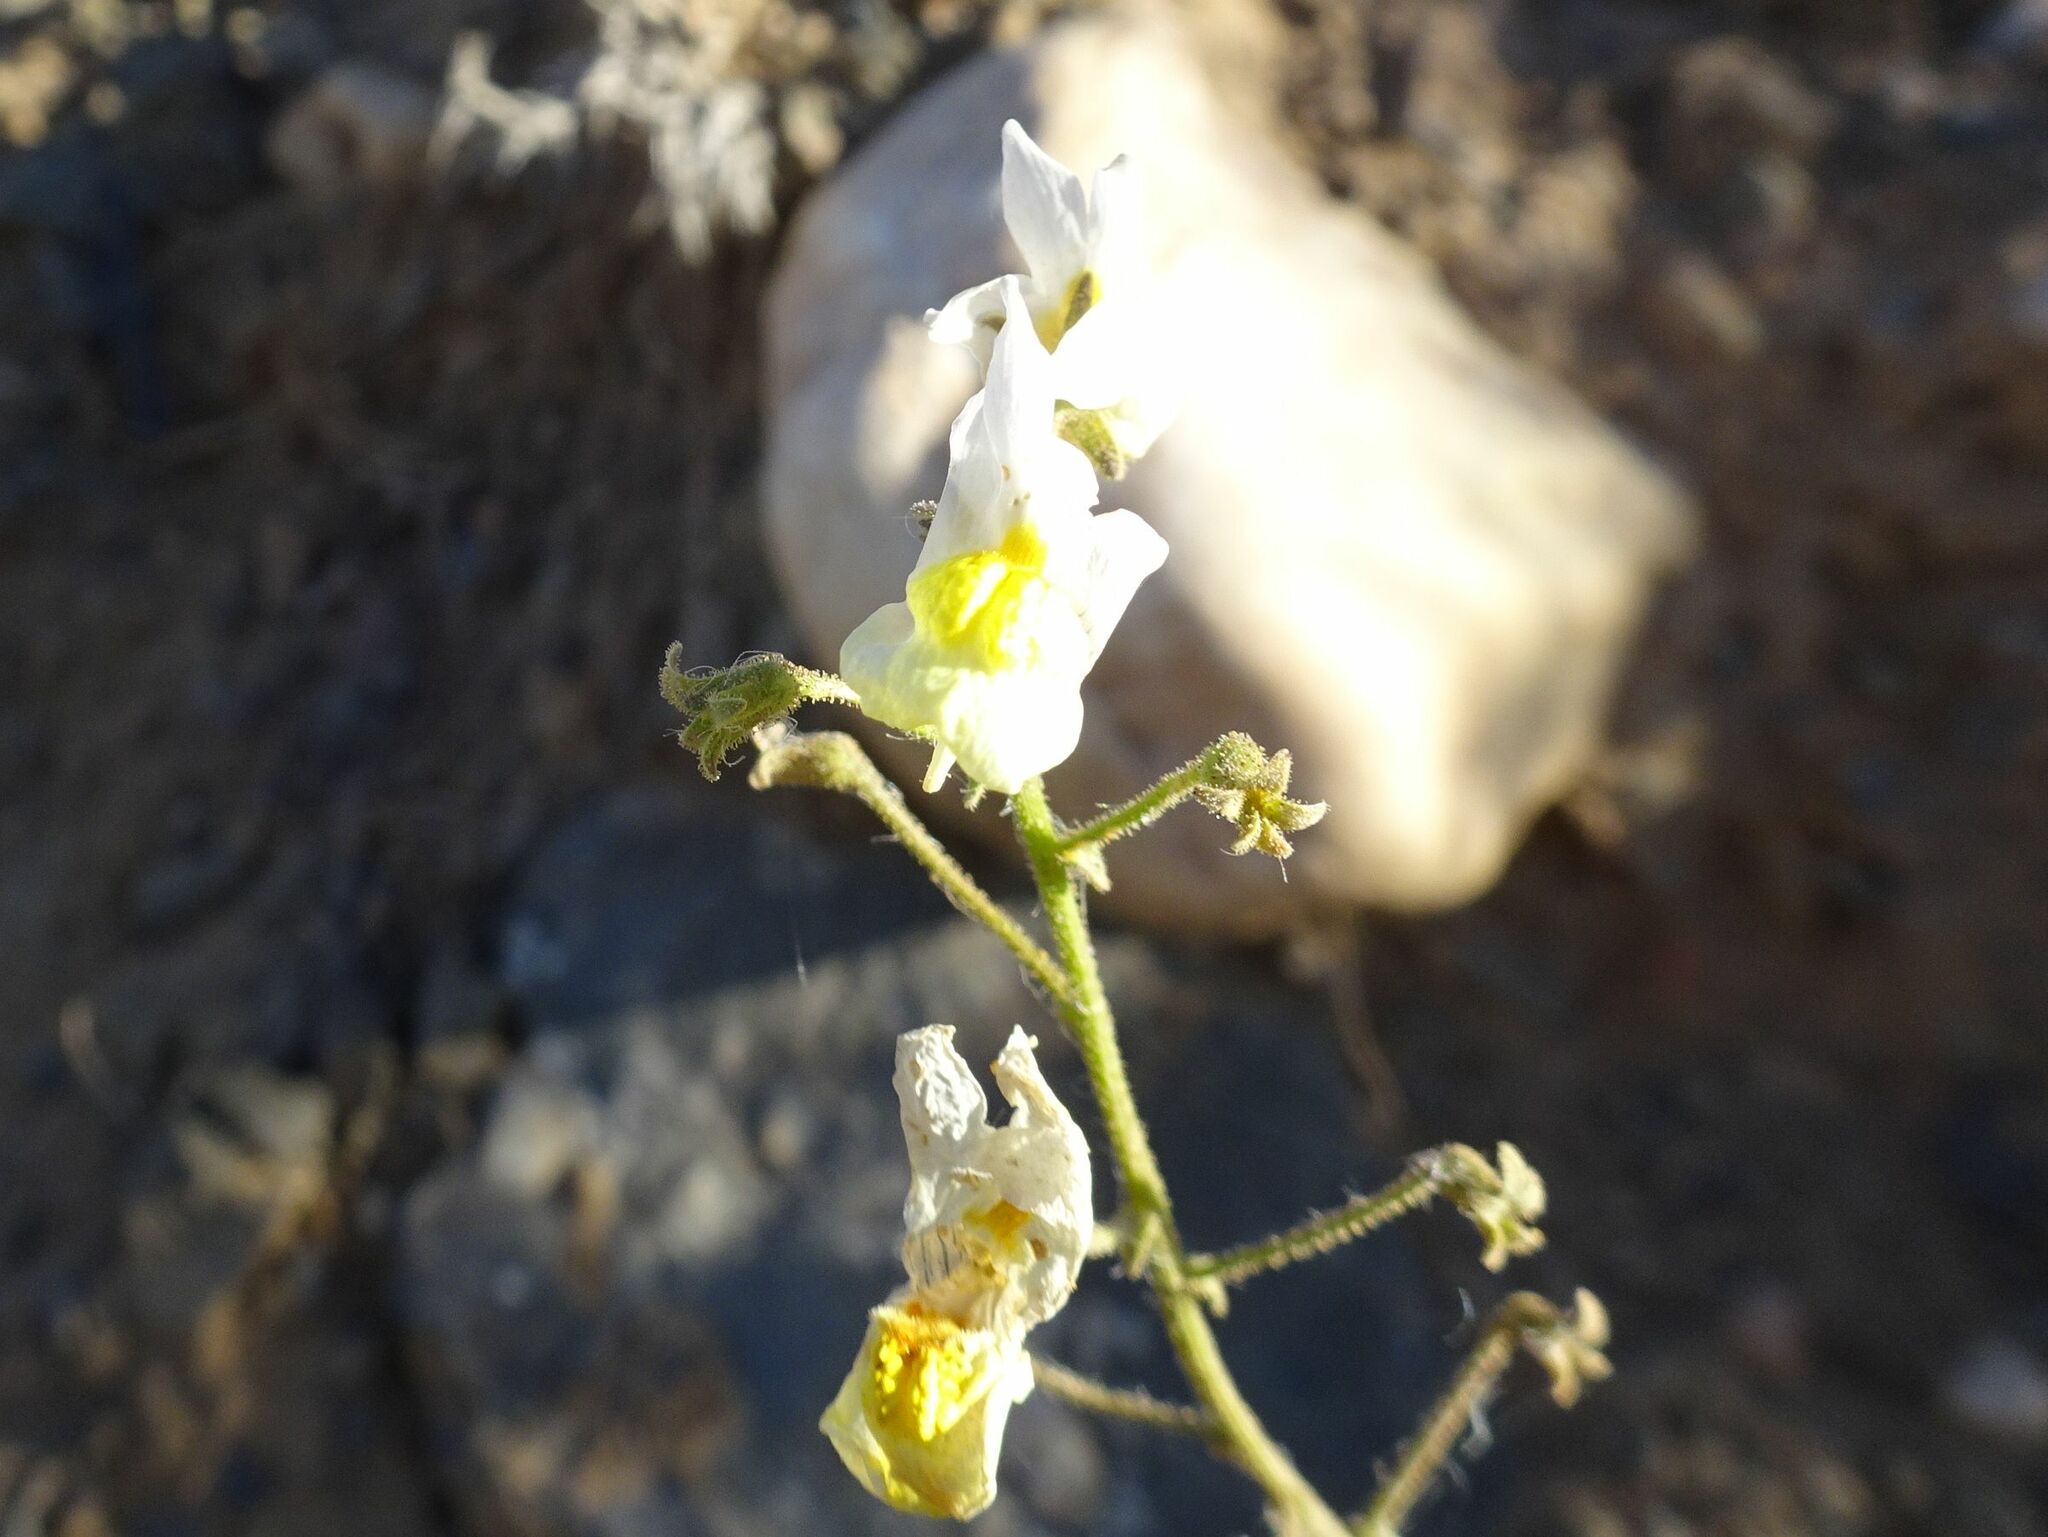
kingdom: Plantae
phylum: Tracheophyta
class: Magnoliopsida
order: Lamiales
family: Scrophulariaceae
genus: Nemesia
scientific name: Nemesia anisocarpa
